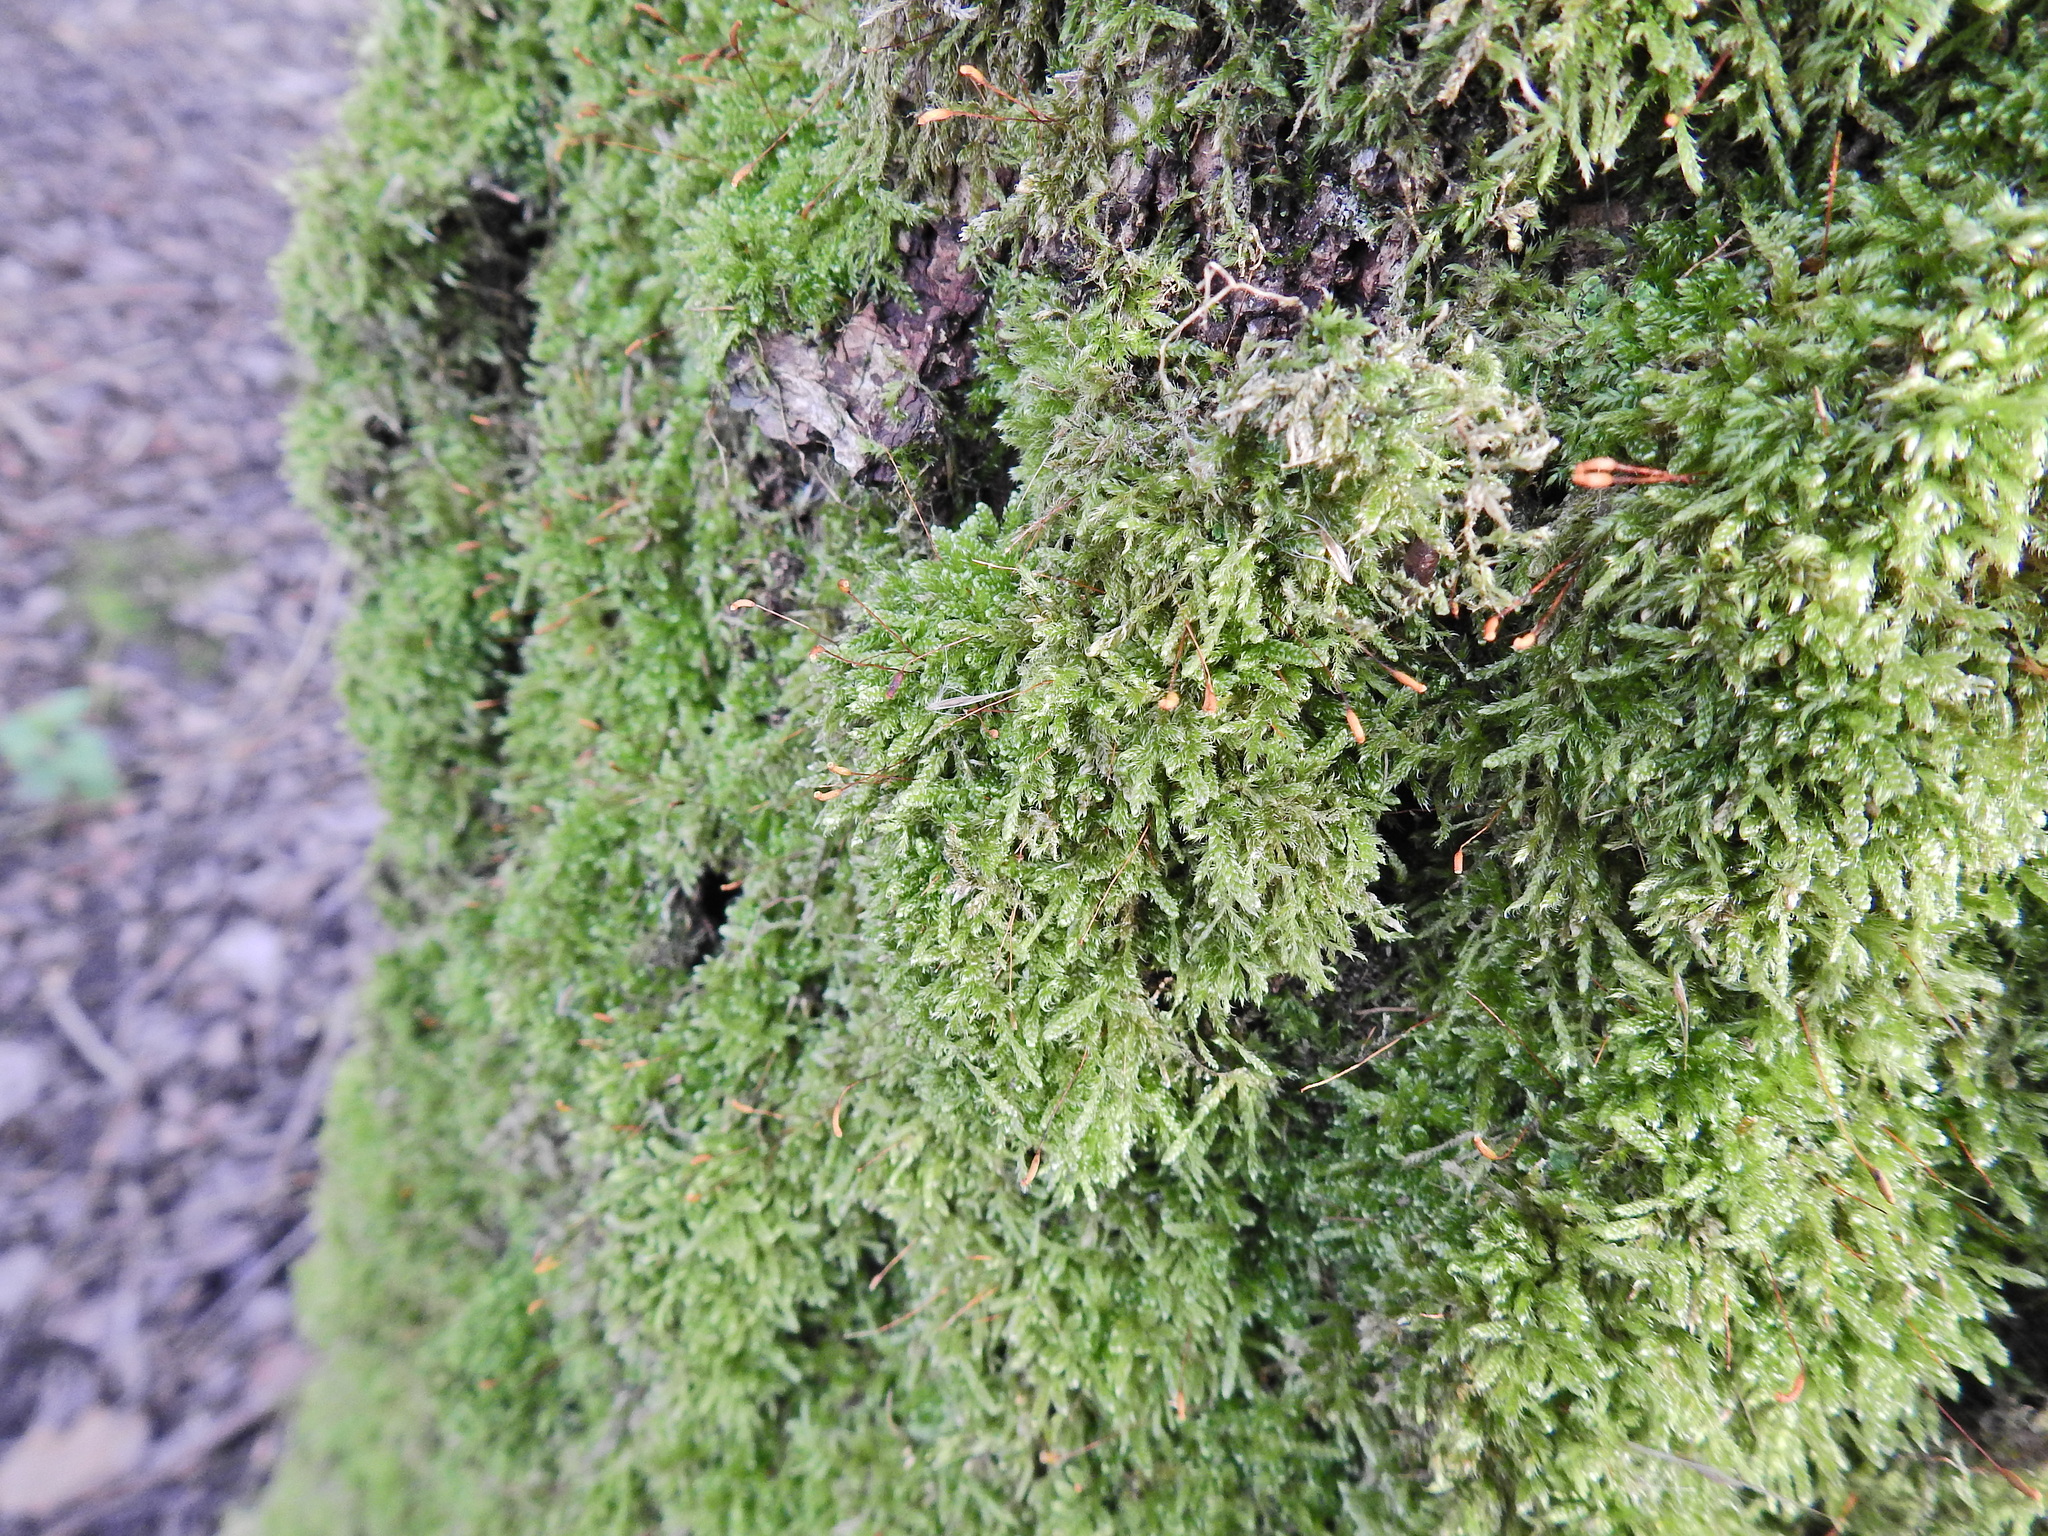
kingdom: Plantae
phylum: Bryophyta
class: Bryopsida
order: Hypnales
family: Hypnaceae
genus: Hypnum
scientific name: Hypnum cupressiforme
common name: Cypress-leaved plait-moss
